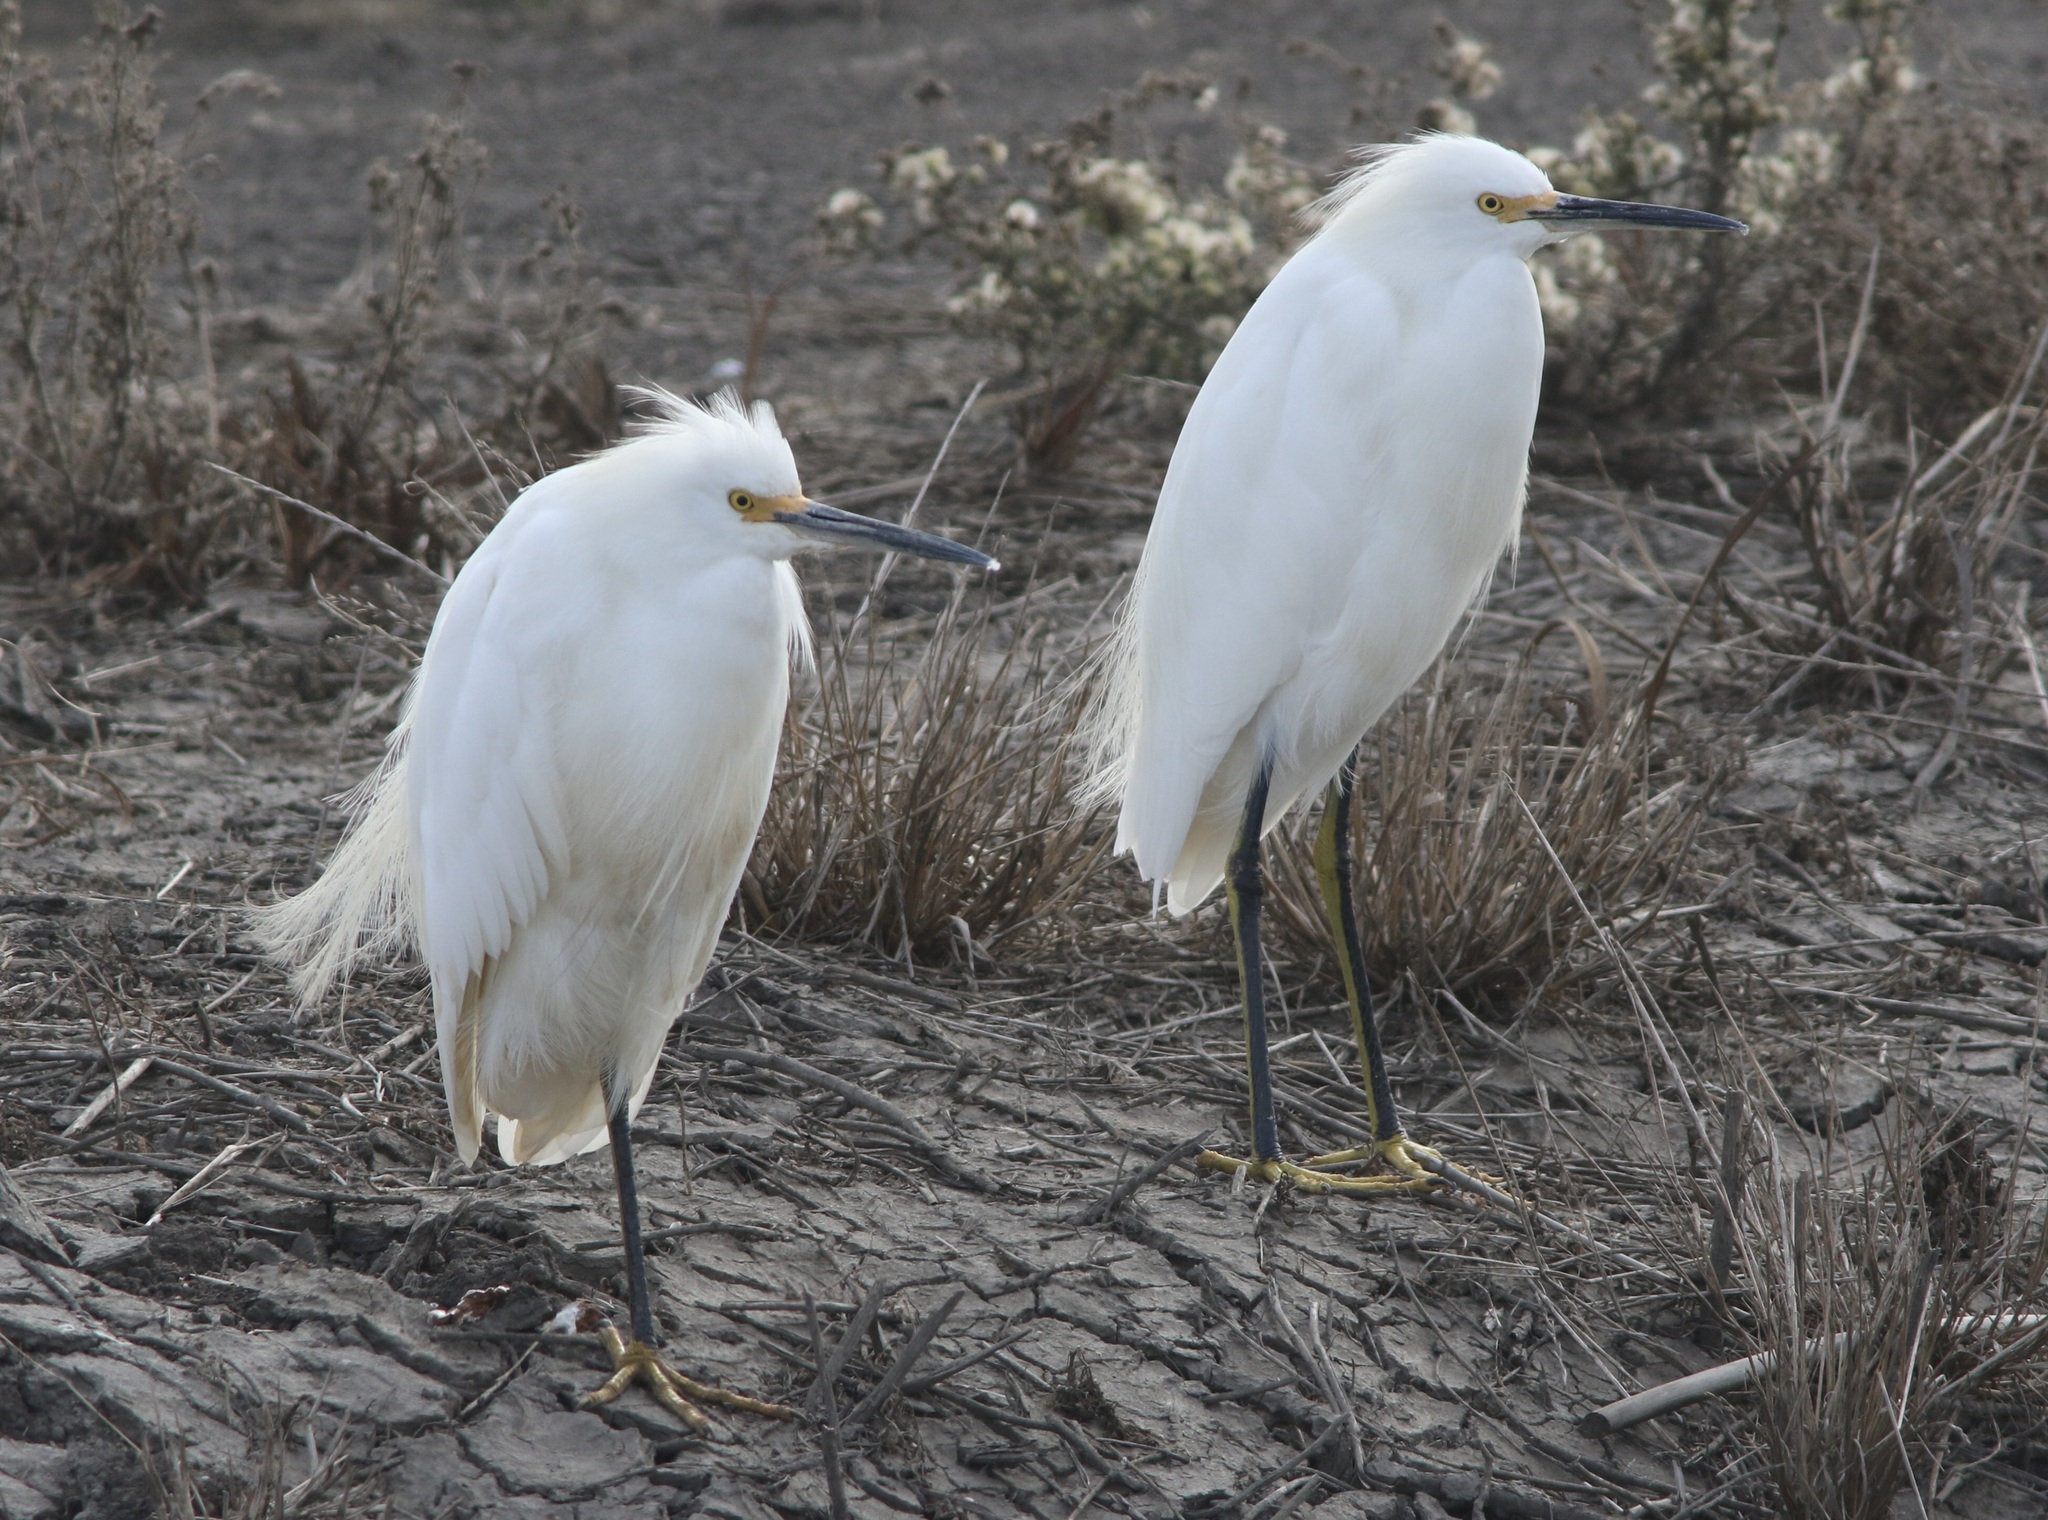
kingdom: Animalia
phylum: Chordata
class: Aves
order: Pelecaniformes
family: Ardeidae
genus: Egretta
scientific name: Egretta thula
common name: Snowy egret
